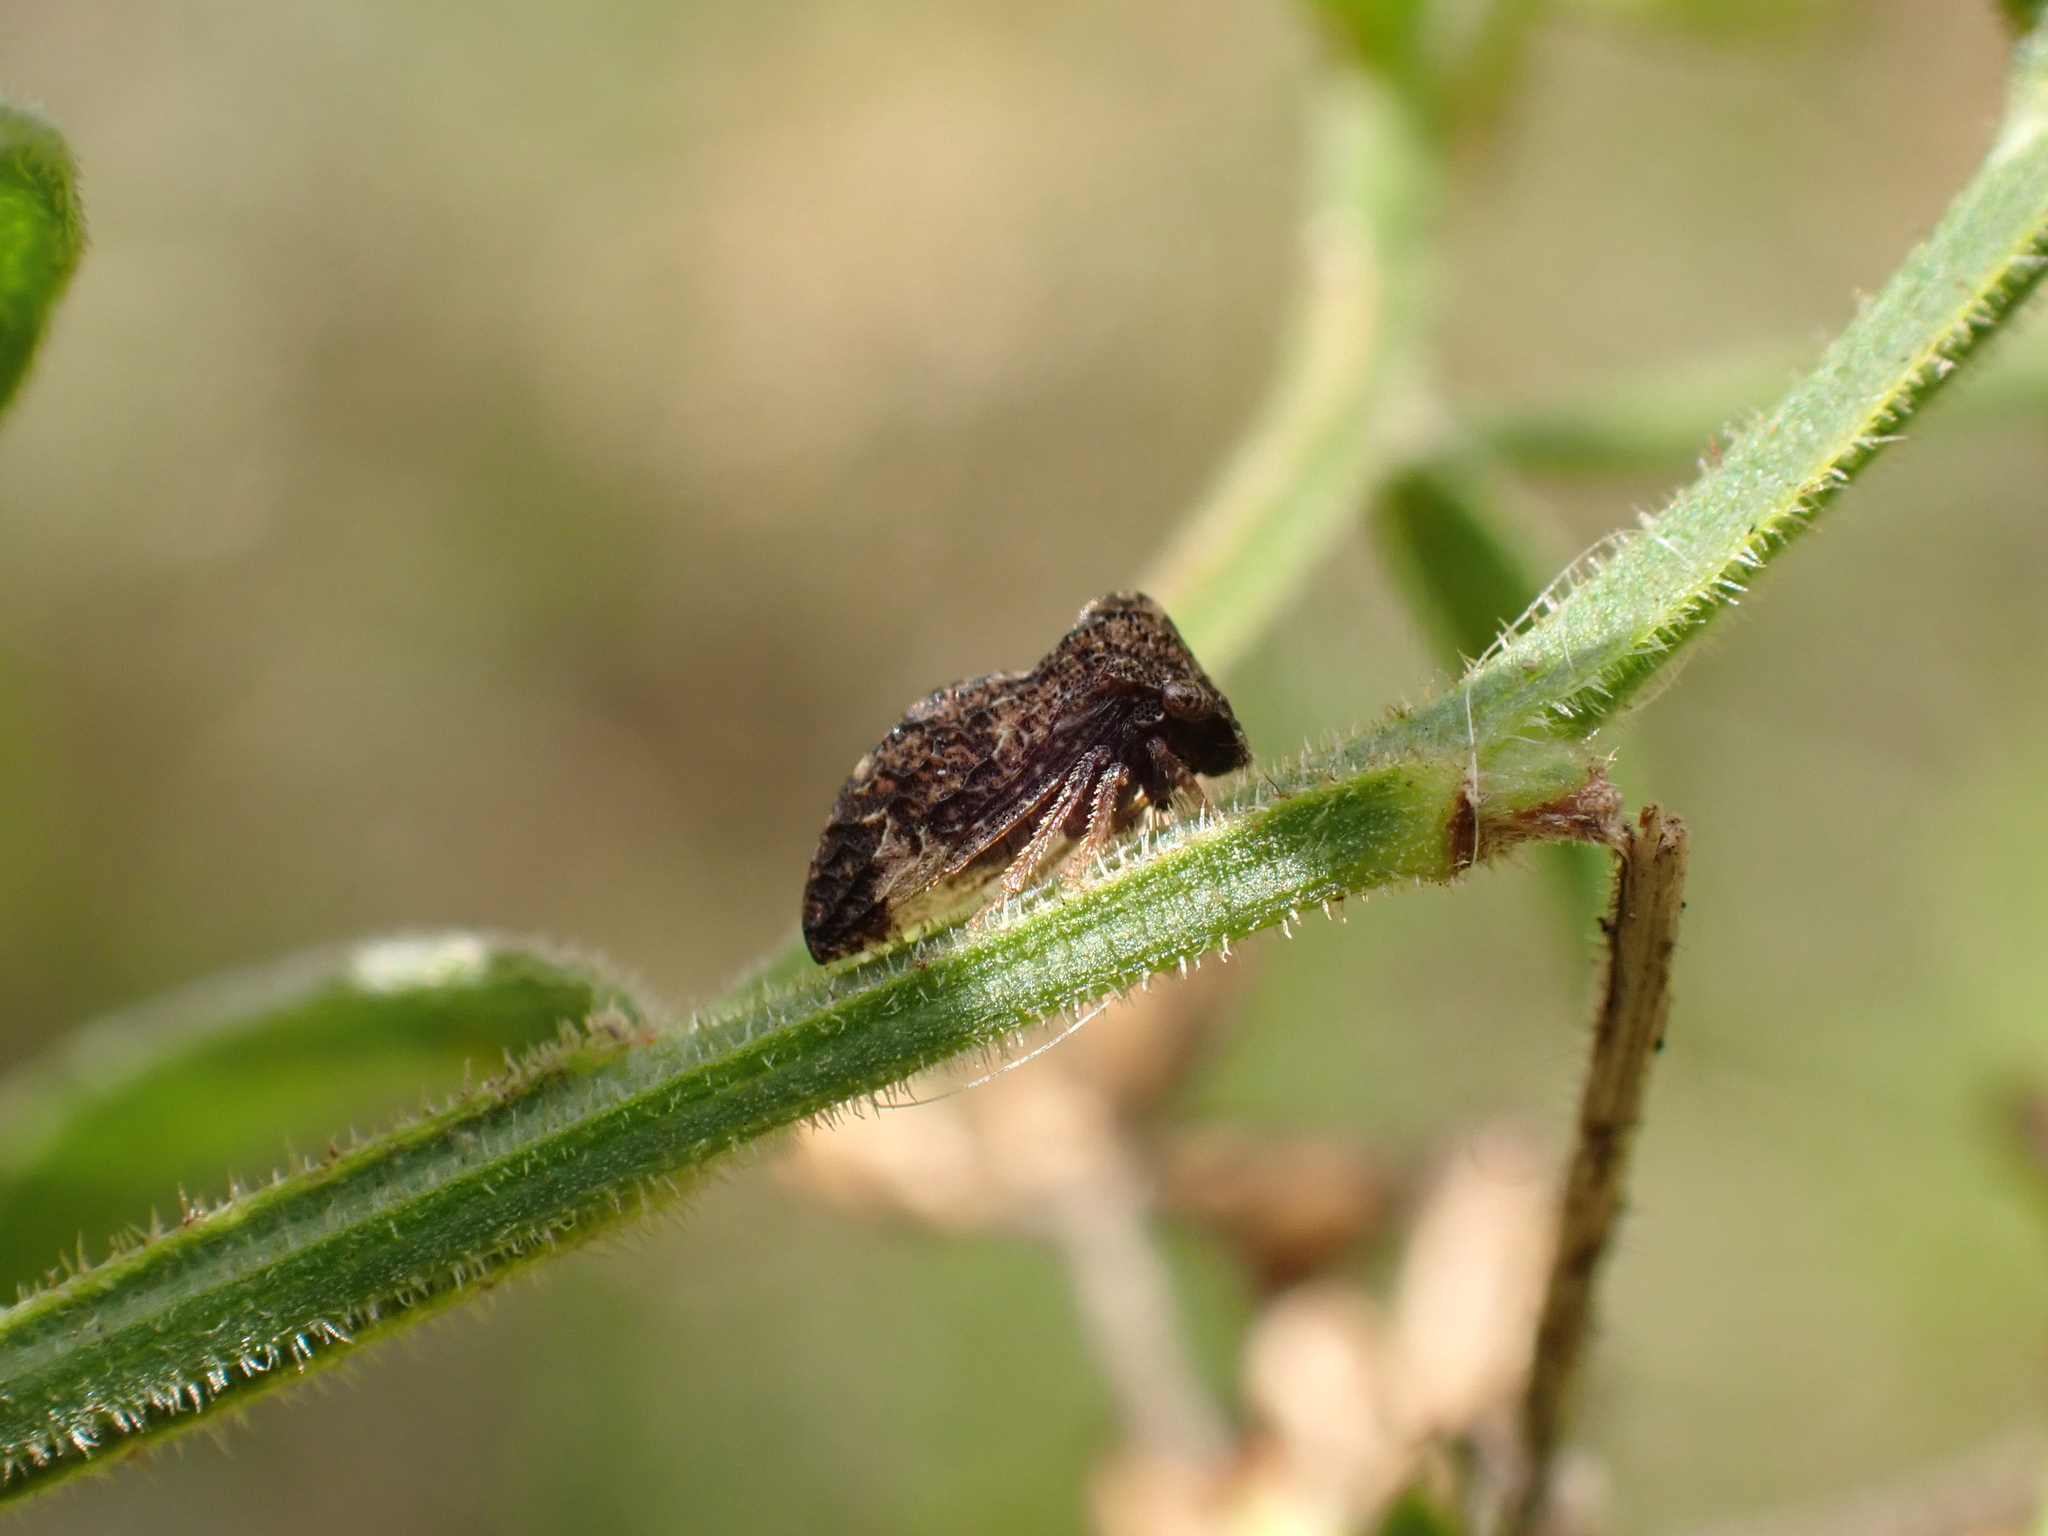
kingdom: Animalia
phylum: Arthropoda
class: Insecta
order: Hemiptera
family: Membracidae
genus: Publilia
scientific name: Publilia reticulata
